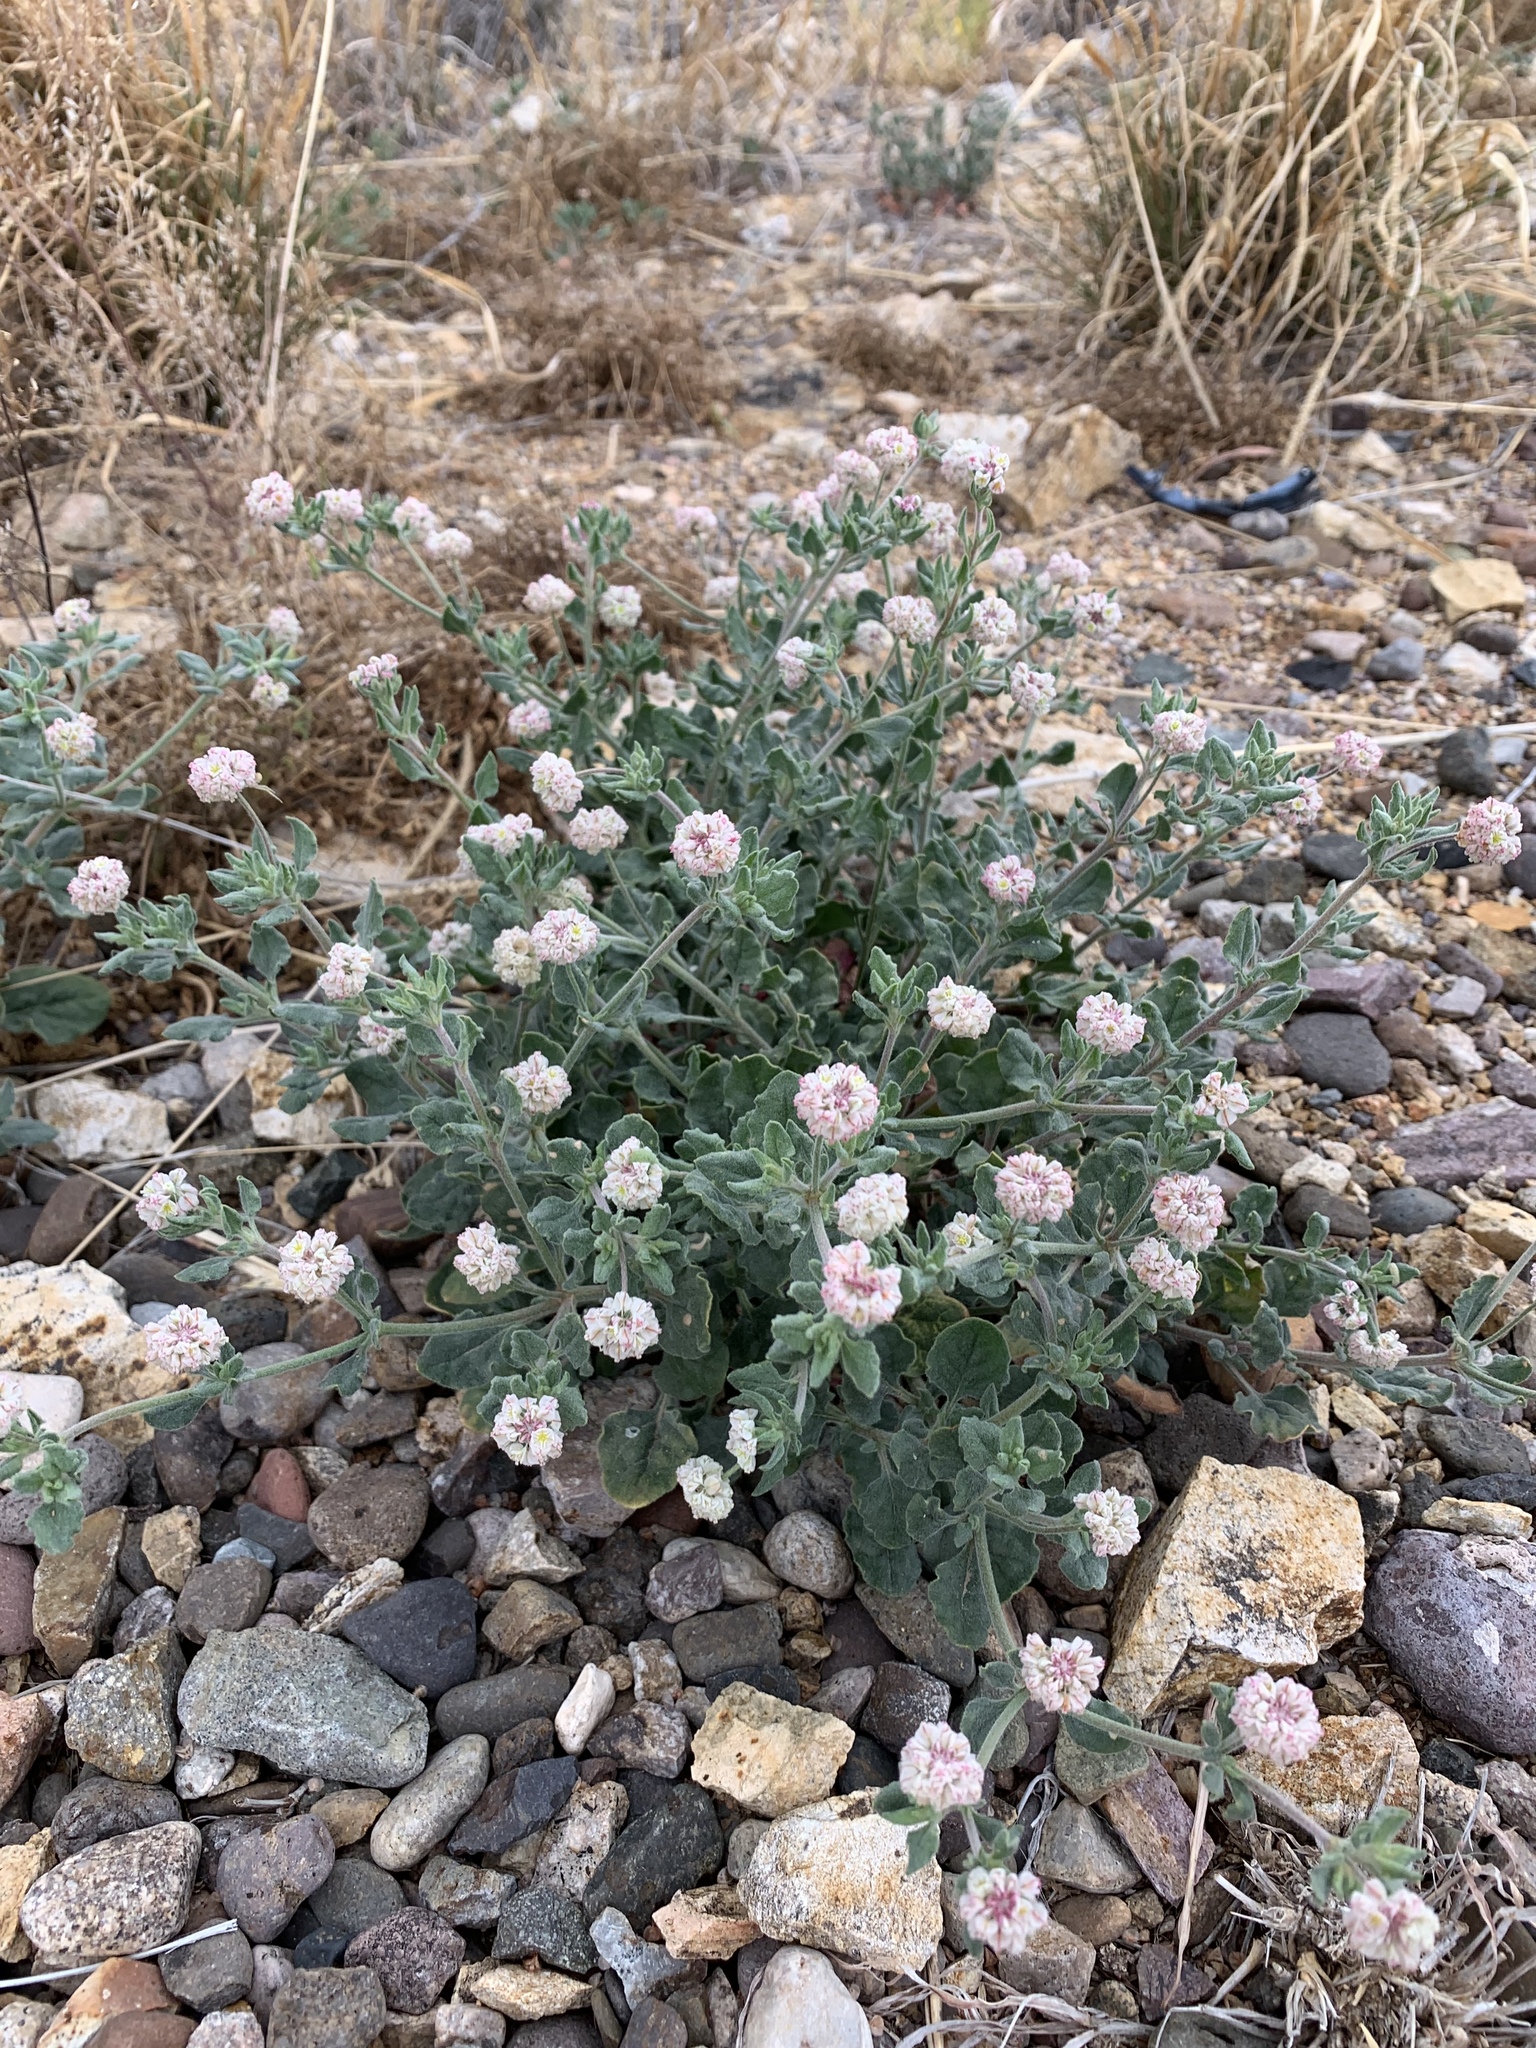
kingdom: Plantae
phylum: Tracheophyta
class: Magnoliopsida
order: Caryophyllales
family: Polygonaceae
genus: Eriogonum
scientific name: Eriogonum abertianum
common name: Abert's wild buckwheat
